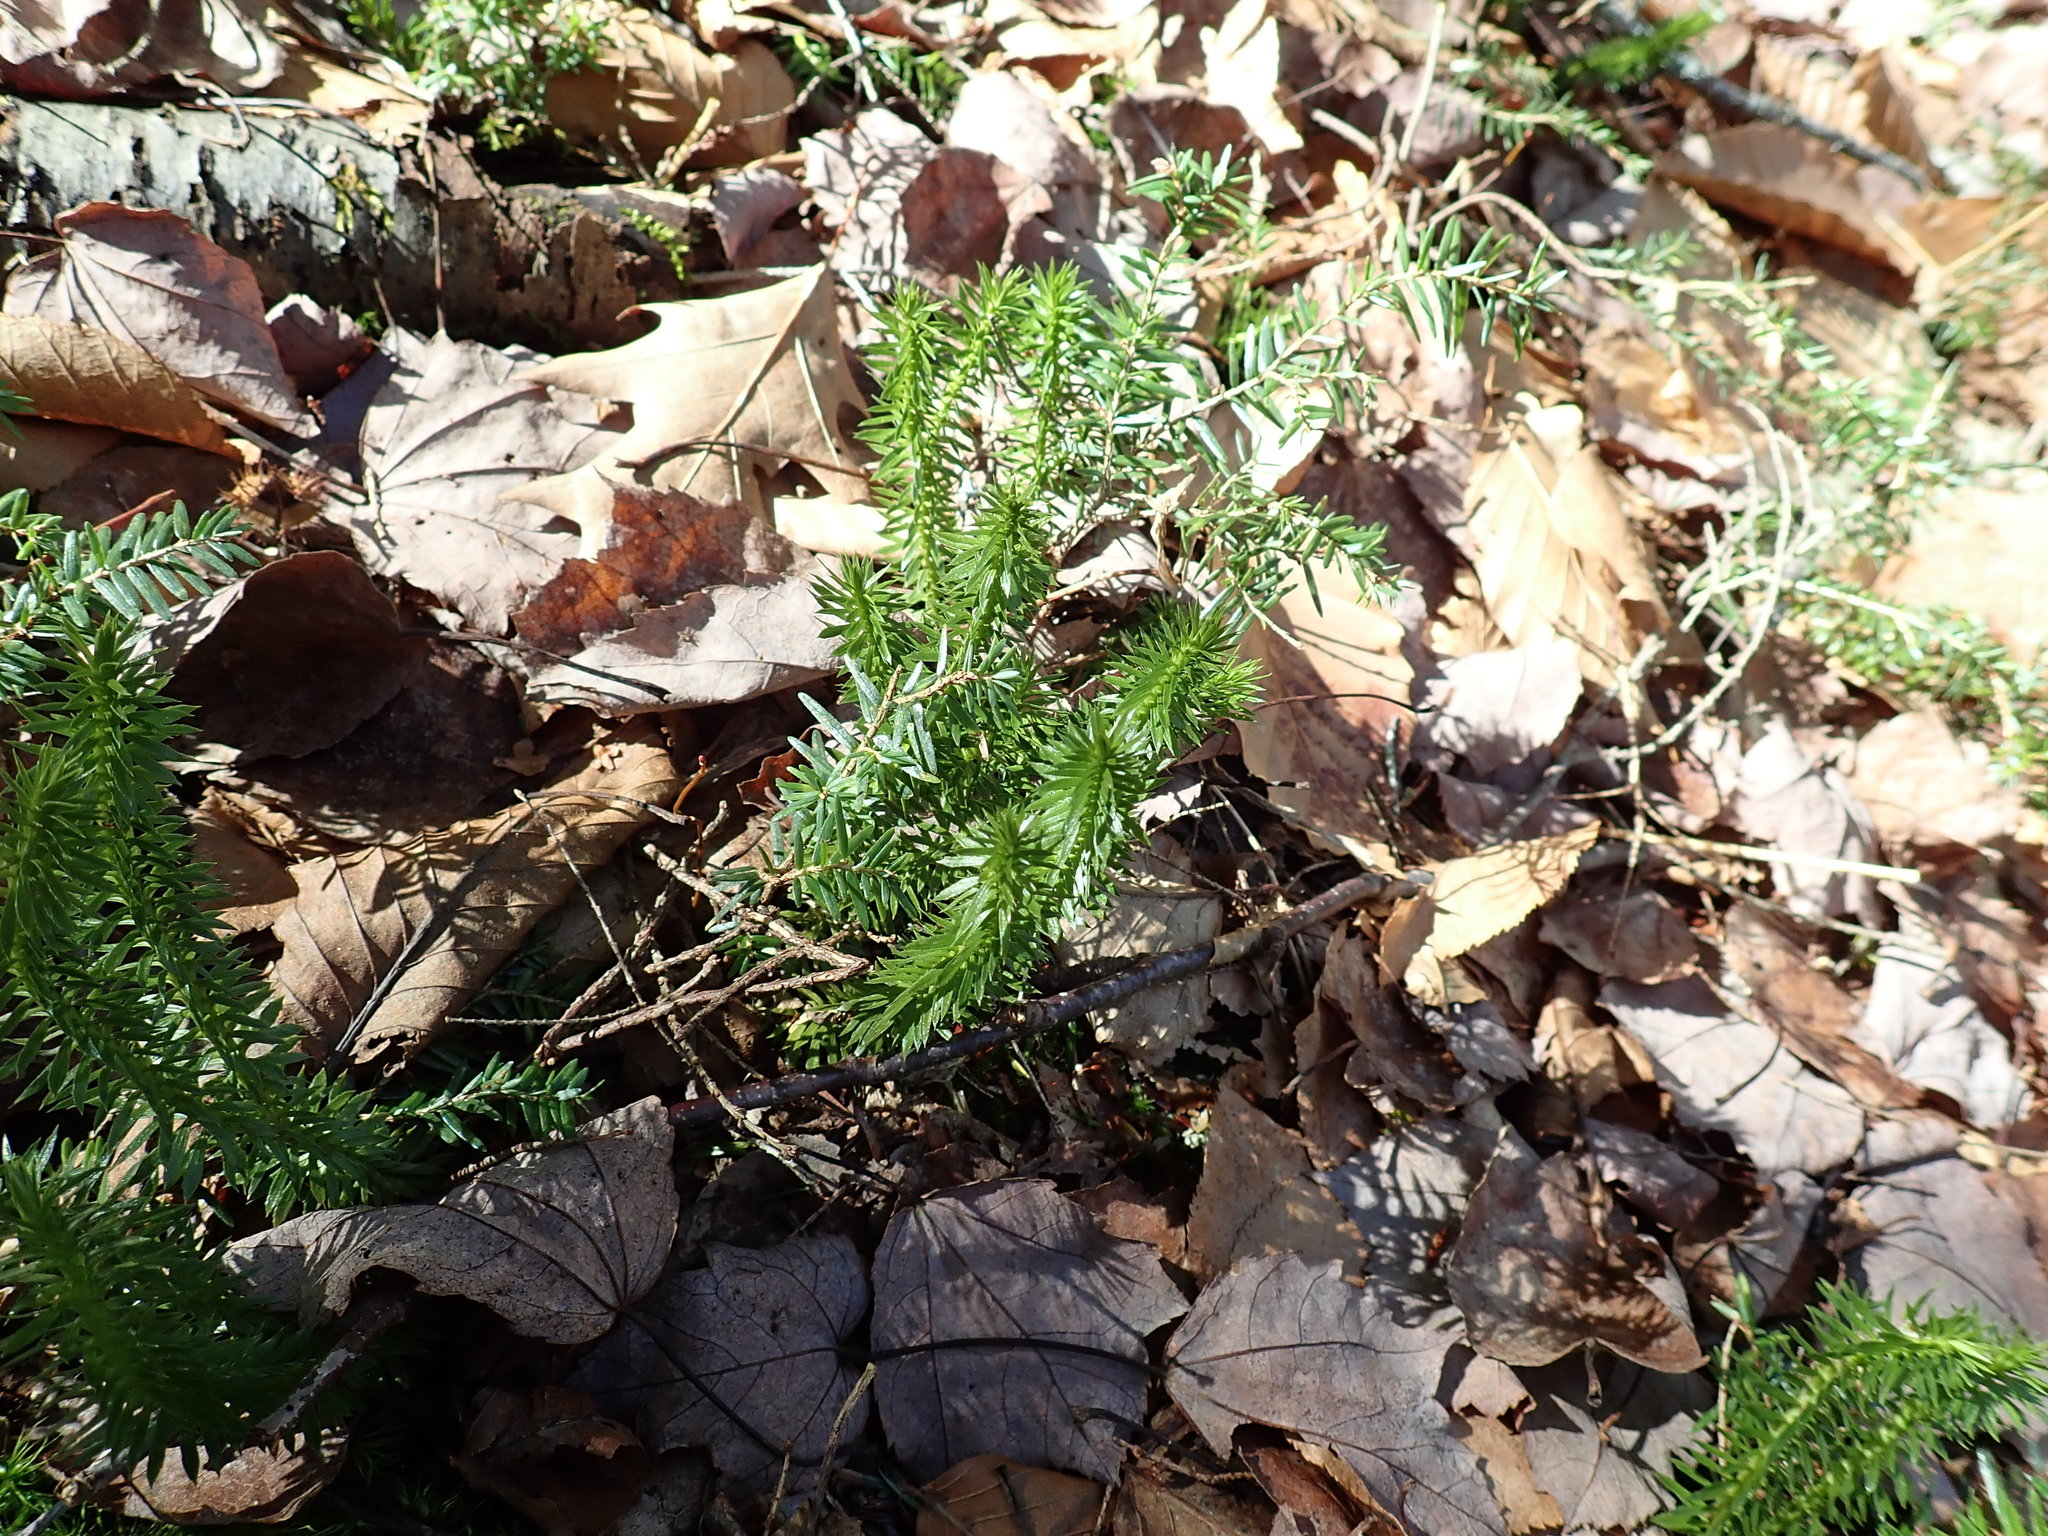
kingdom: Plantae
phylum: Tracheophyta
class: Lycopodiopsida
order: Lycopodiales
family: Lycopodiaceae
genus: Huperzia
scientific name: Huperzia lucidula
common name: Shining clubmoss
